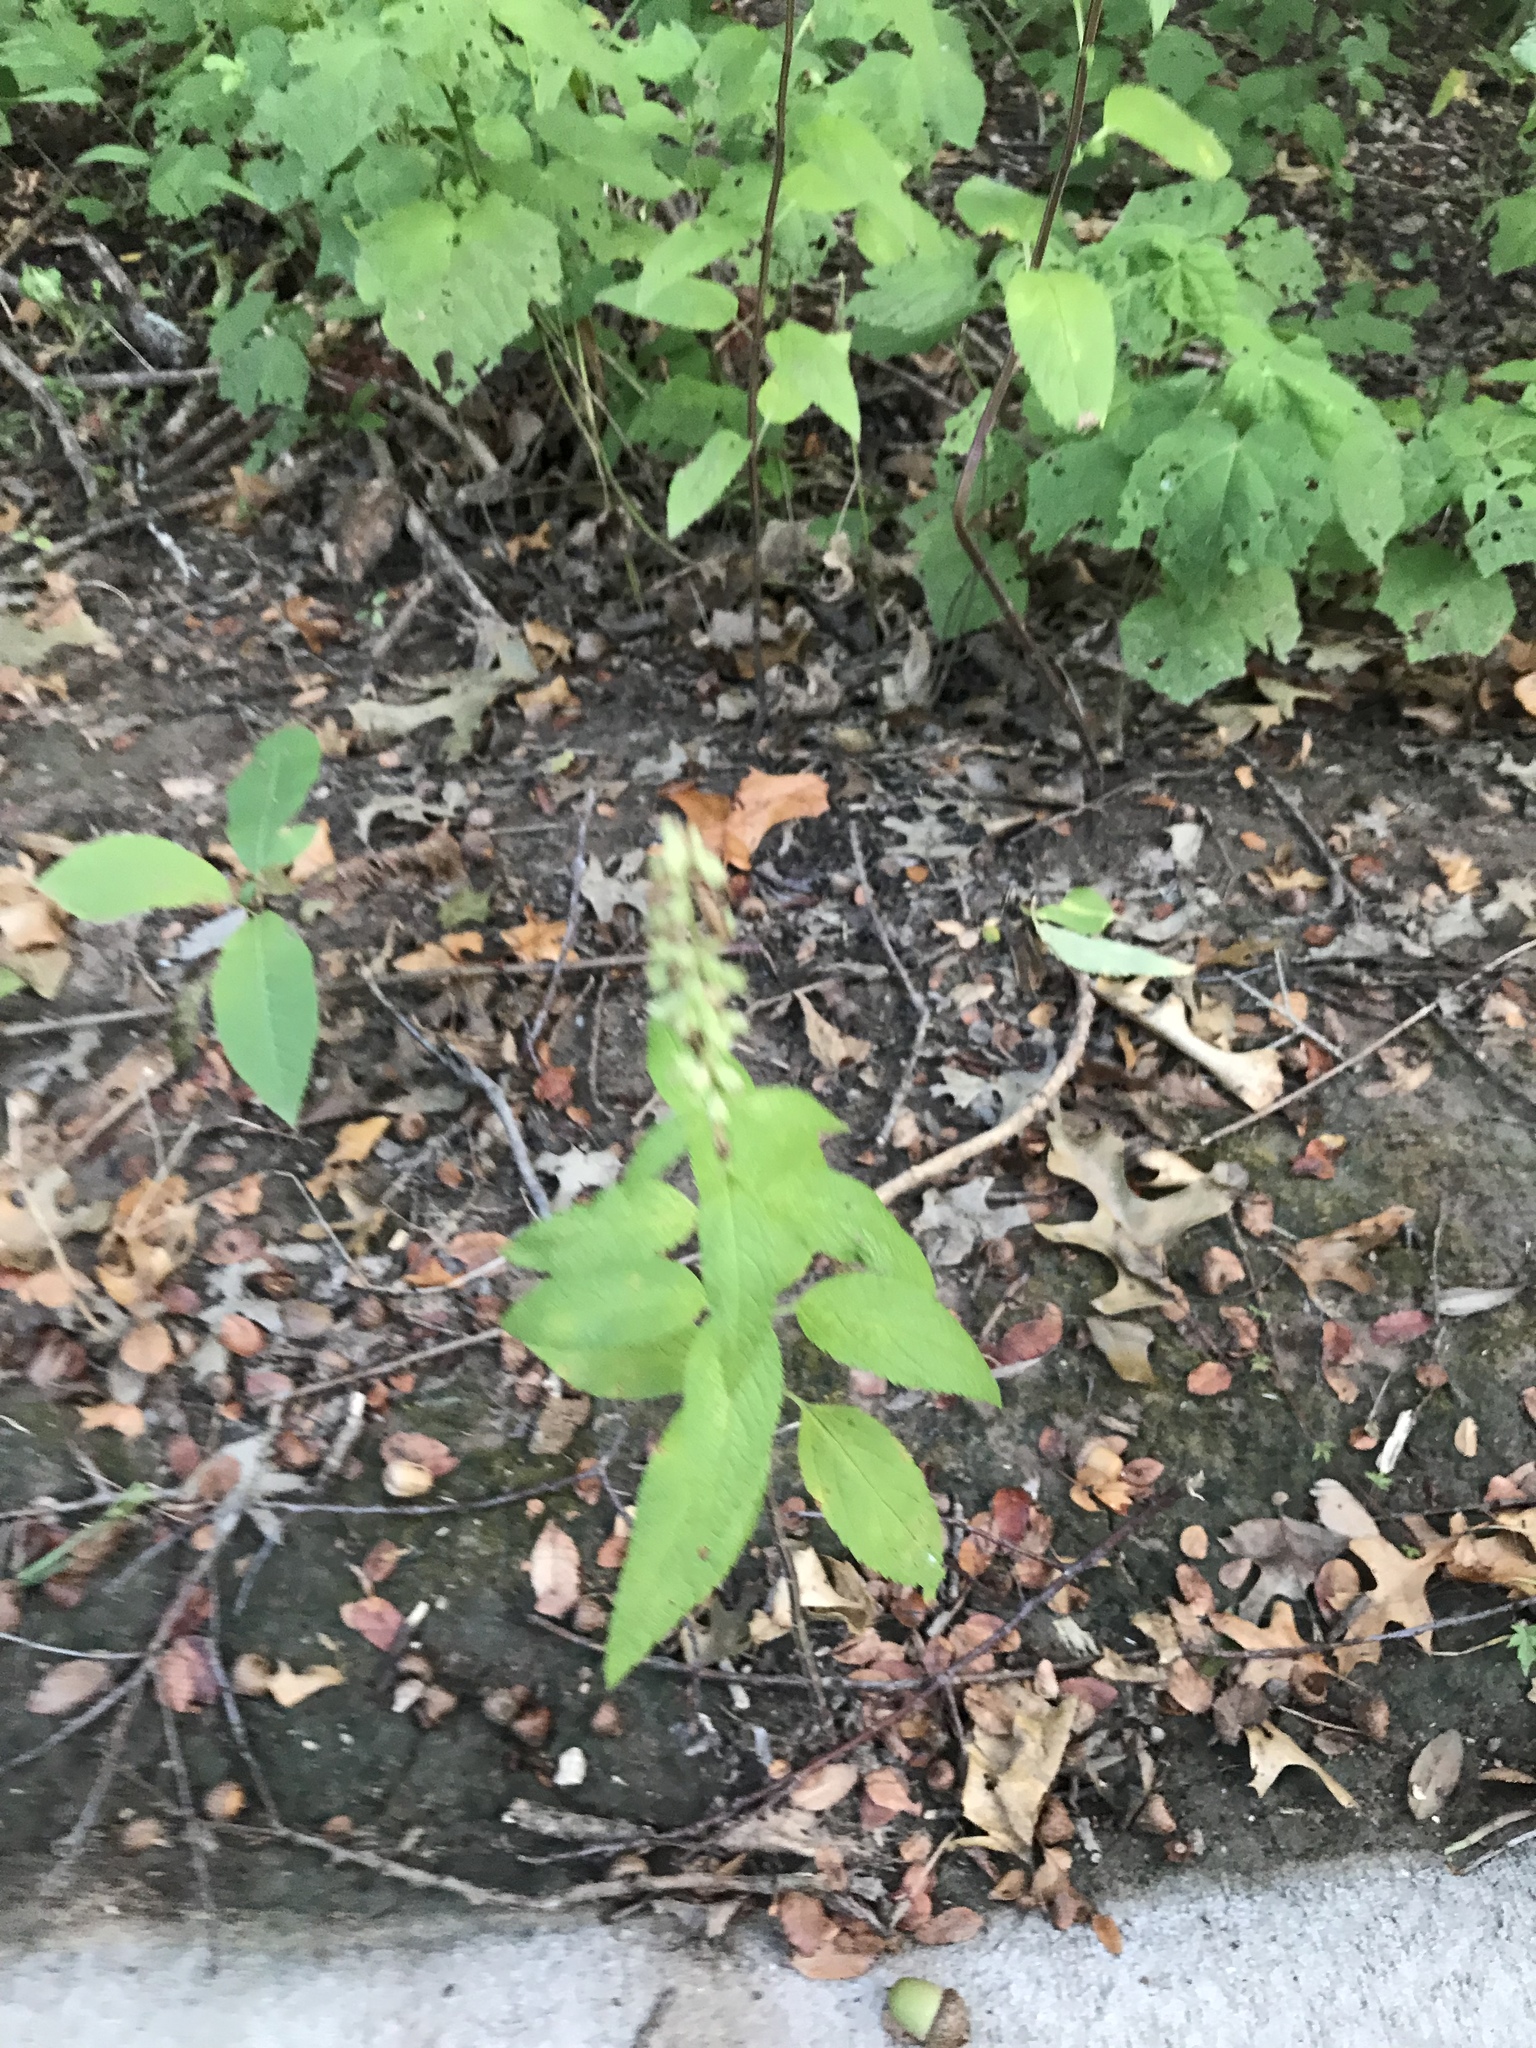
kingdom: Plantae
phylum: Tracheophyta
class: Magnoliopsida
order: Lamiales
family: Lamiaceae
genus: Teucrium
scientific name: Teucrium canadense
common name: American germander
